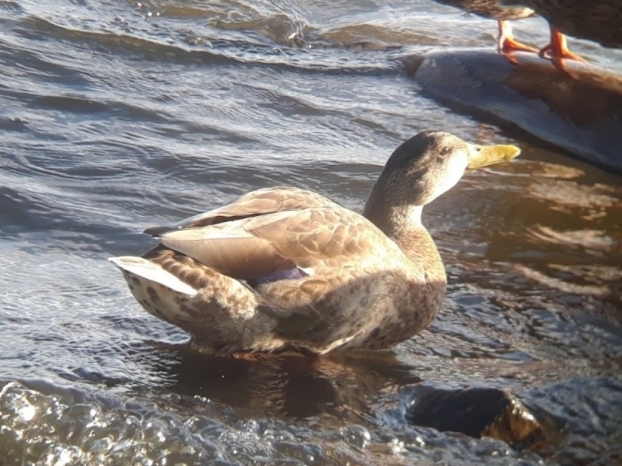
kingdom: Animalia
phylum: Chordata
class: Aves
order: Anseriformes
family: Anatidae
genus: Anas
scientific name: Anas platyrhynchos
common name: Mallard
